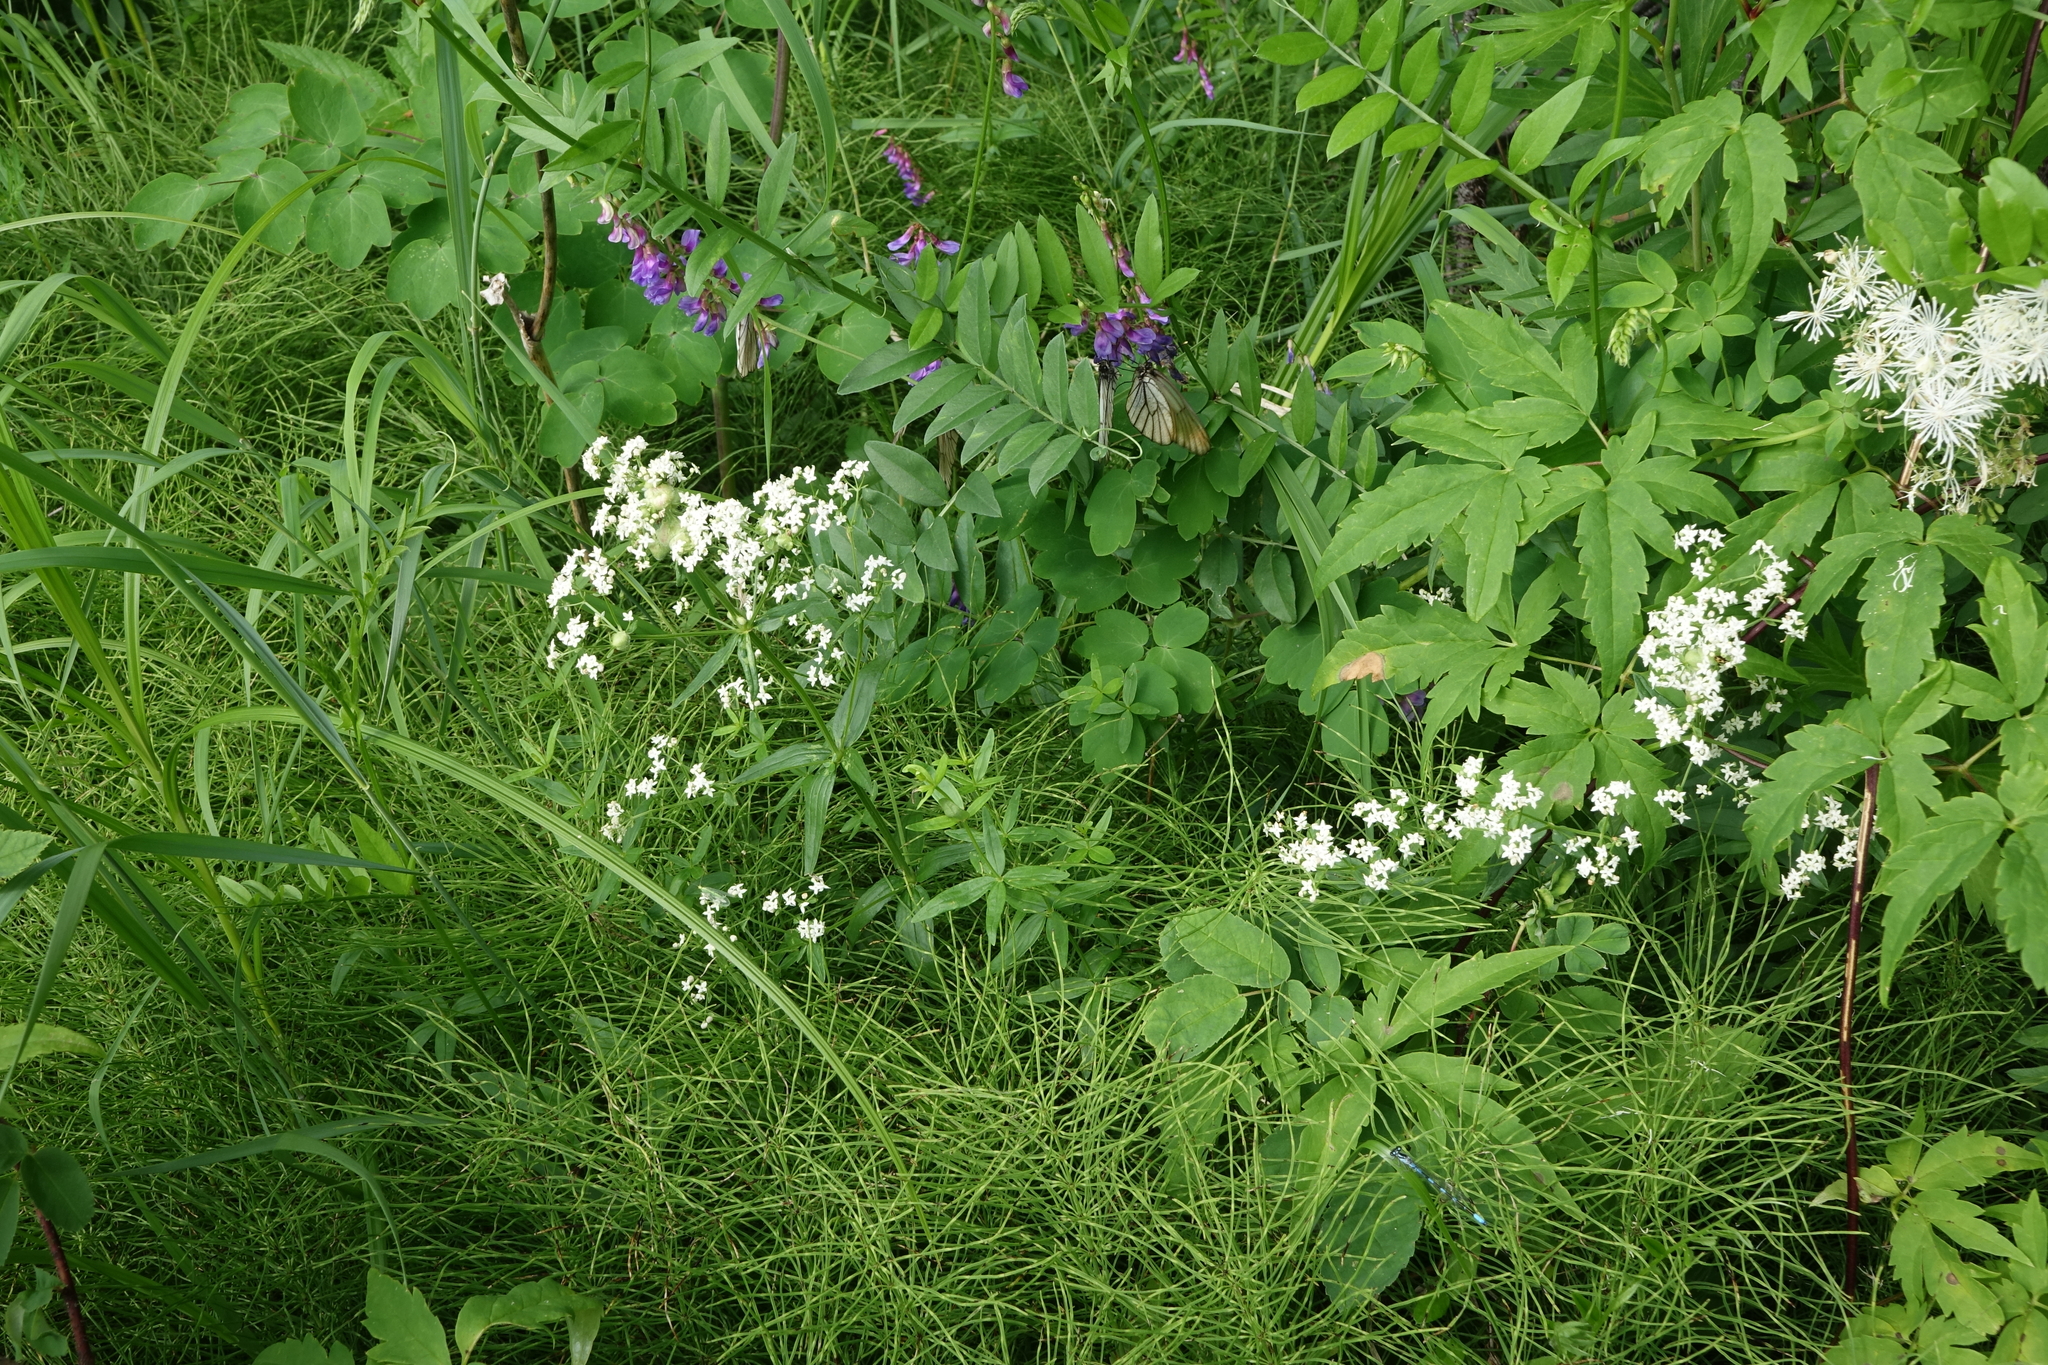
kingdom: Plantae
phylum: Tracheophyta
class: Magnoliopsida
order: Gentianales
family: Rubiaceae
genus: Galium
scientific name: Galium boreale
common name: Northern bedstraw
